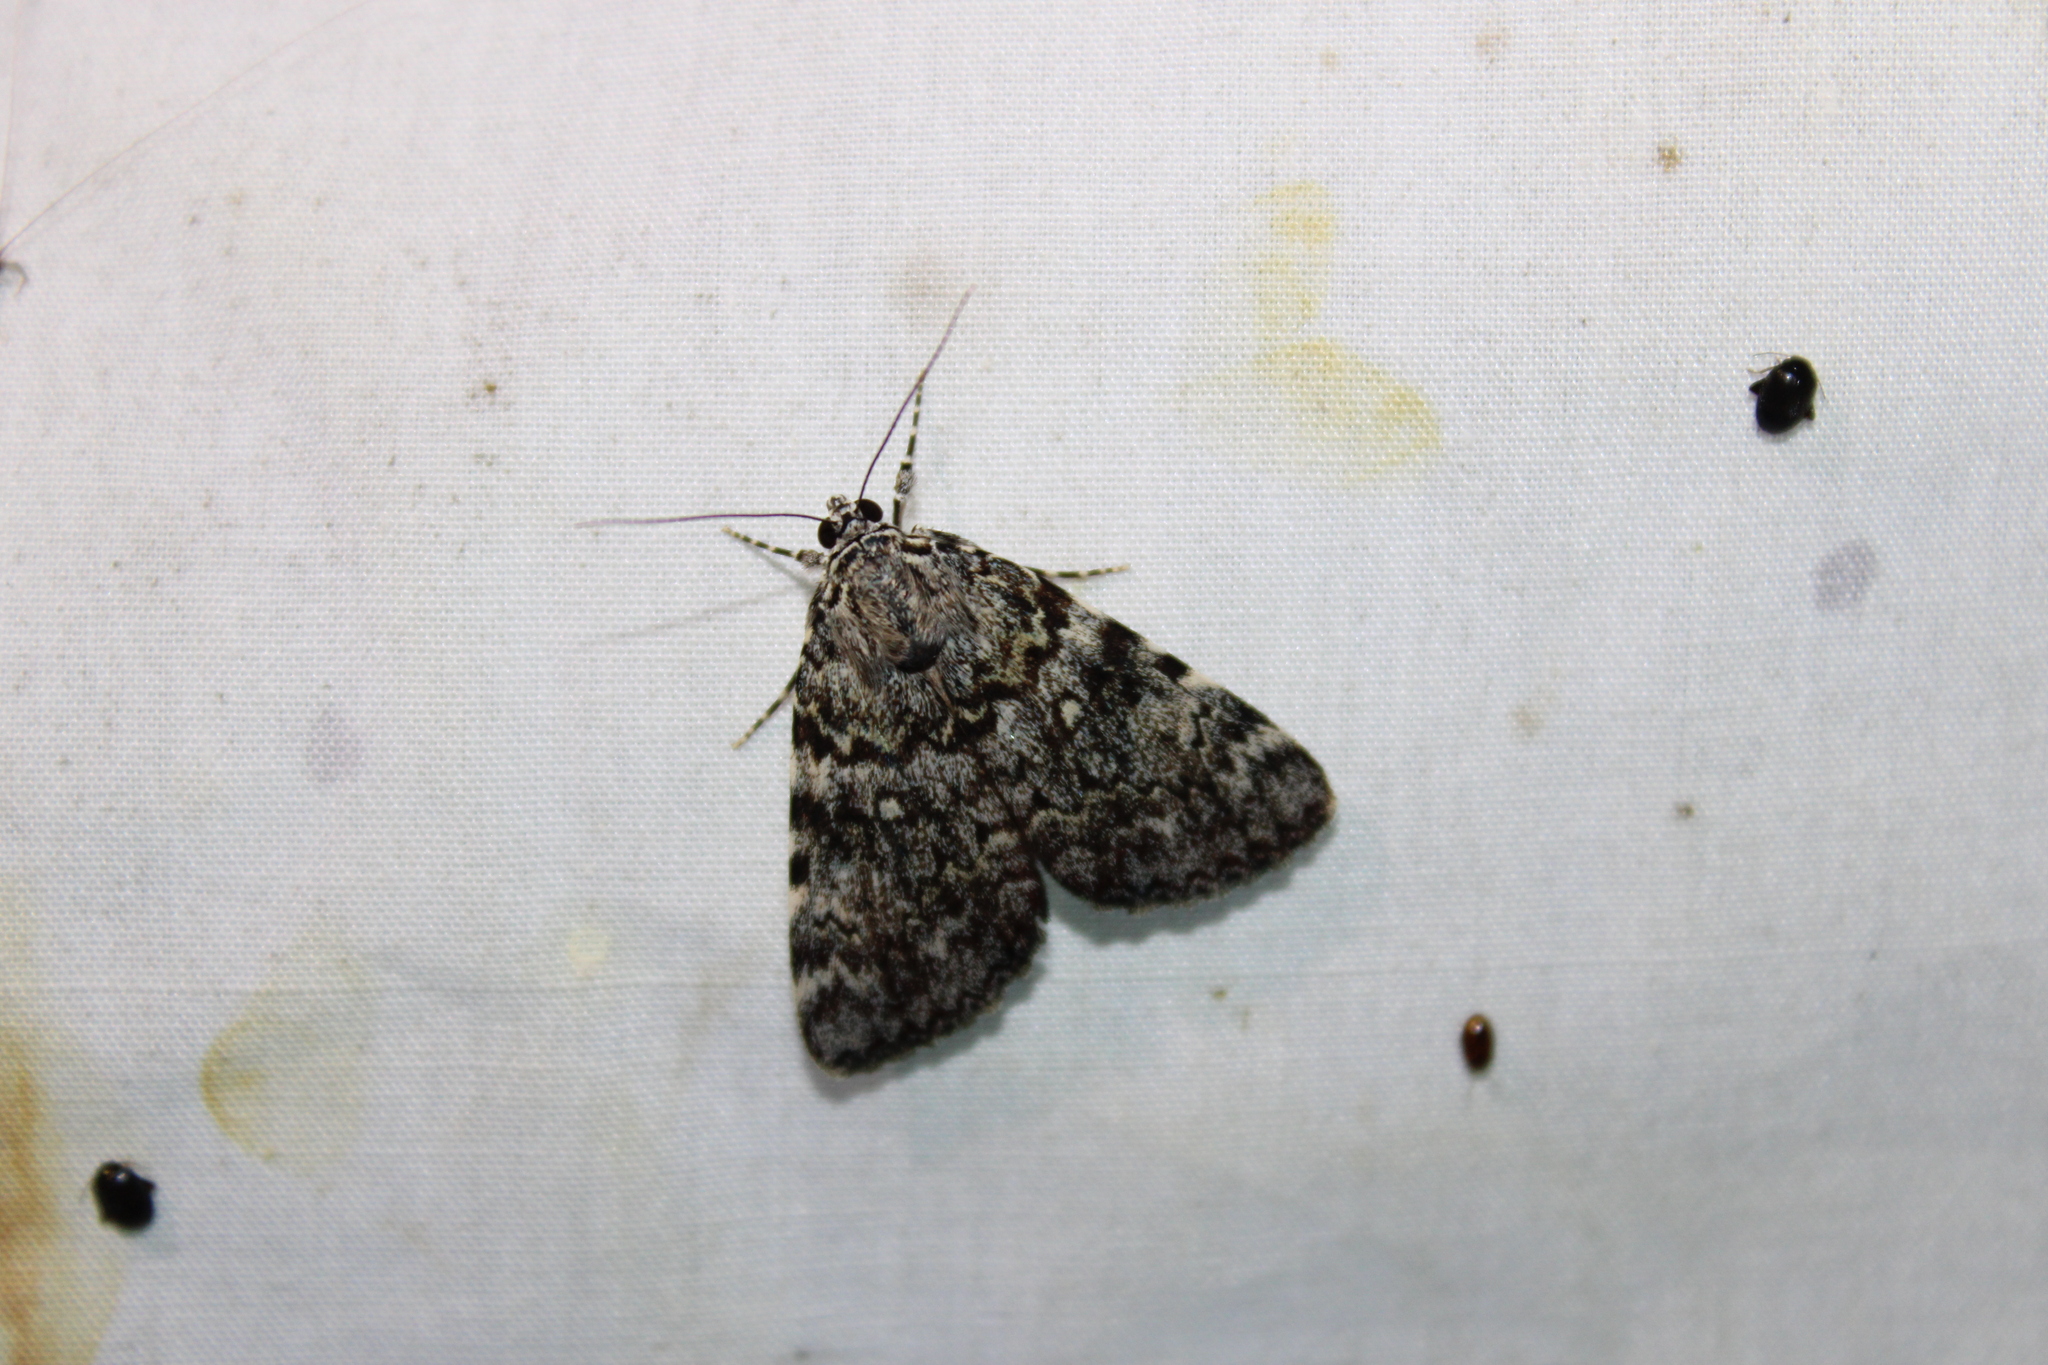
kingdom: Animalia
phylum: Arthropoda
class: Insecta
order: Lepidoptera
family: Erebidae
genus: Catocala
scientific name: Catocala lineella
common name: Little lined underwing
